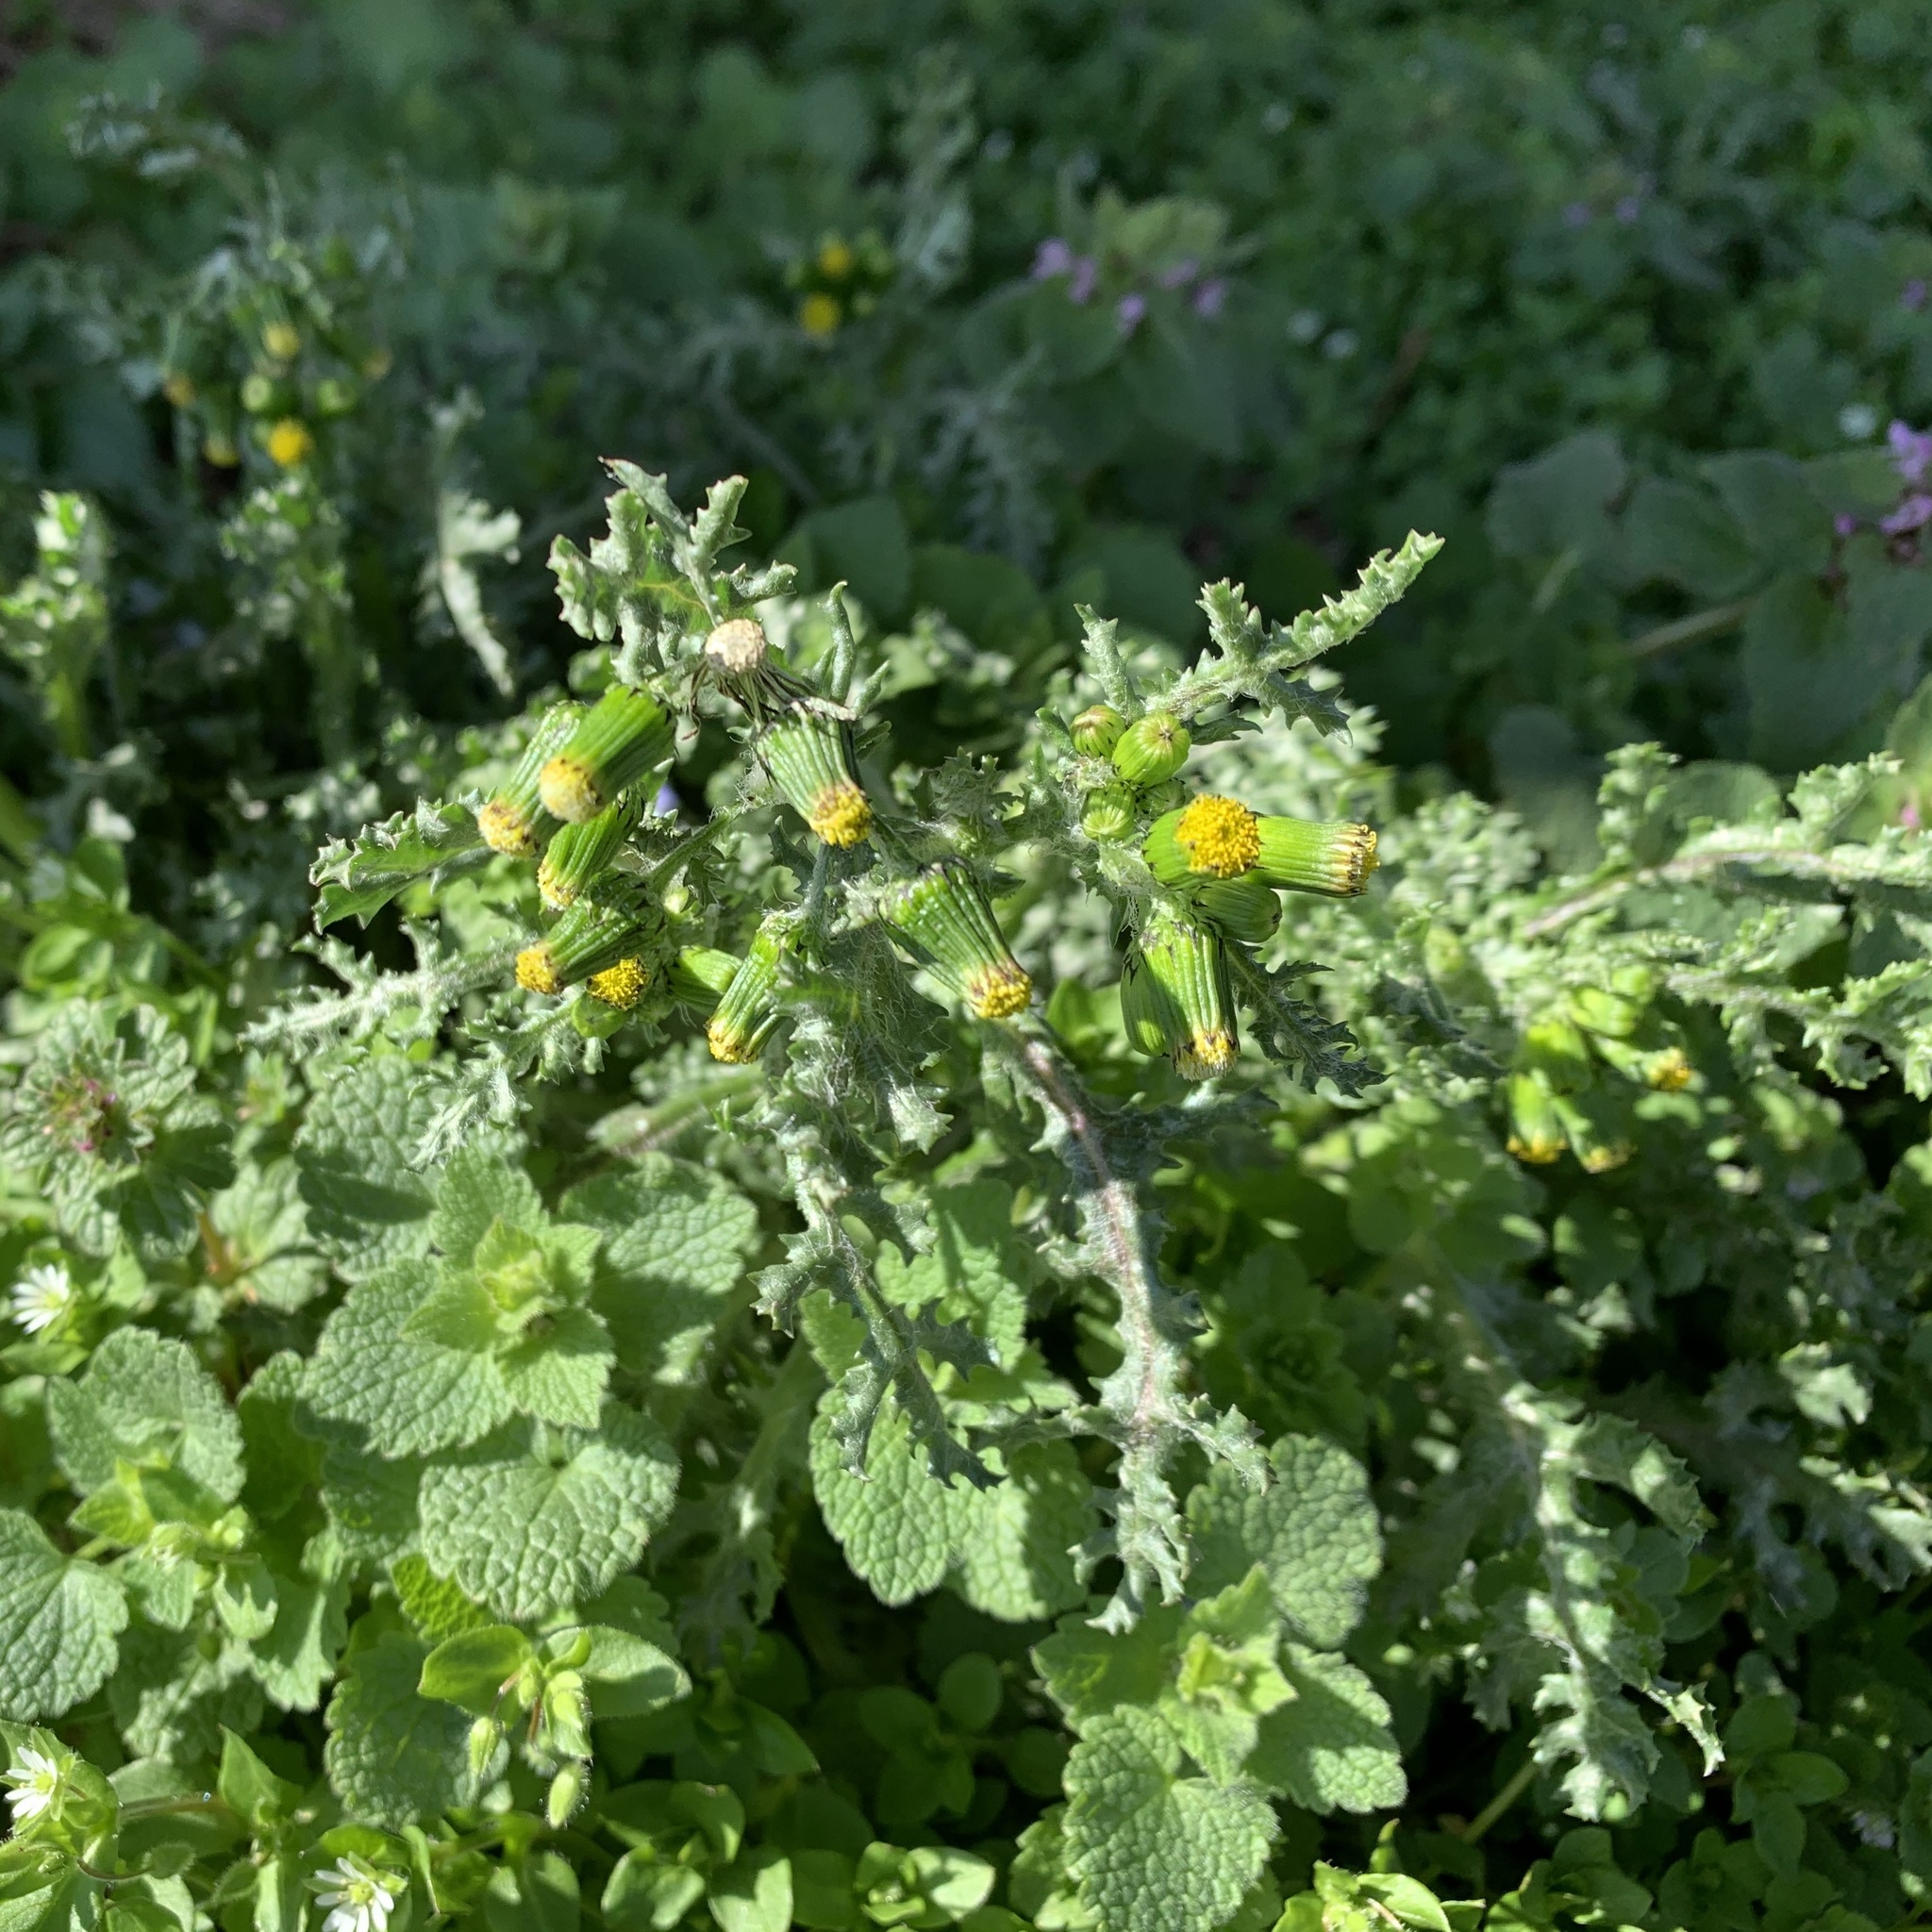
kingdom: Plantae
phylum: Tracheophyta
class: Magnoliopsida
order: Asterales
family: Asteraceae
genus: Senecio
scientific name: Senecio vulgaris
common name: Old-man-in-the-spring
